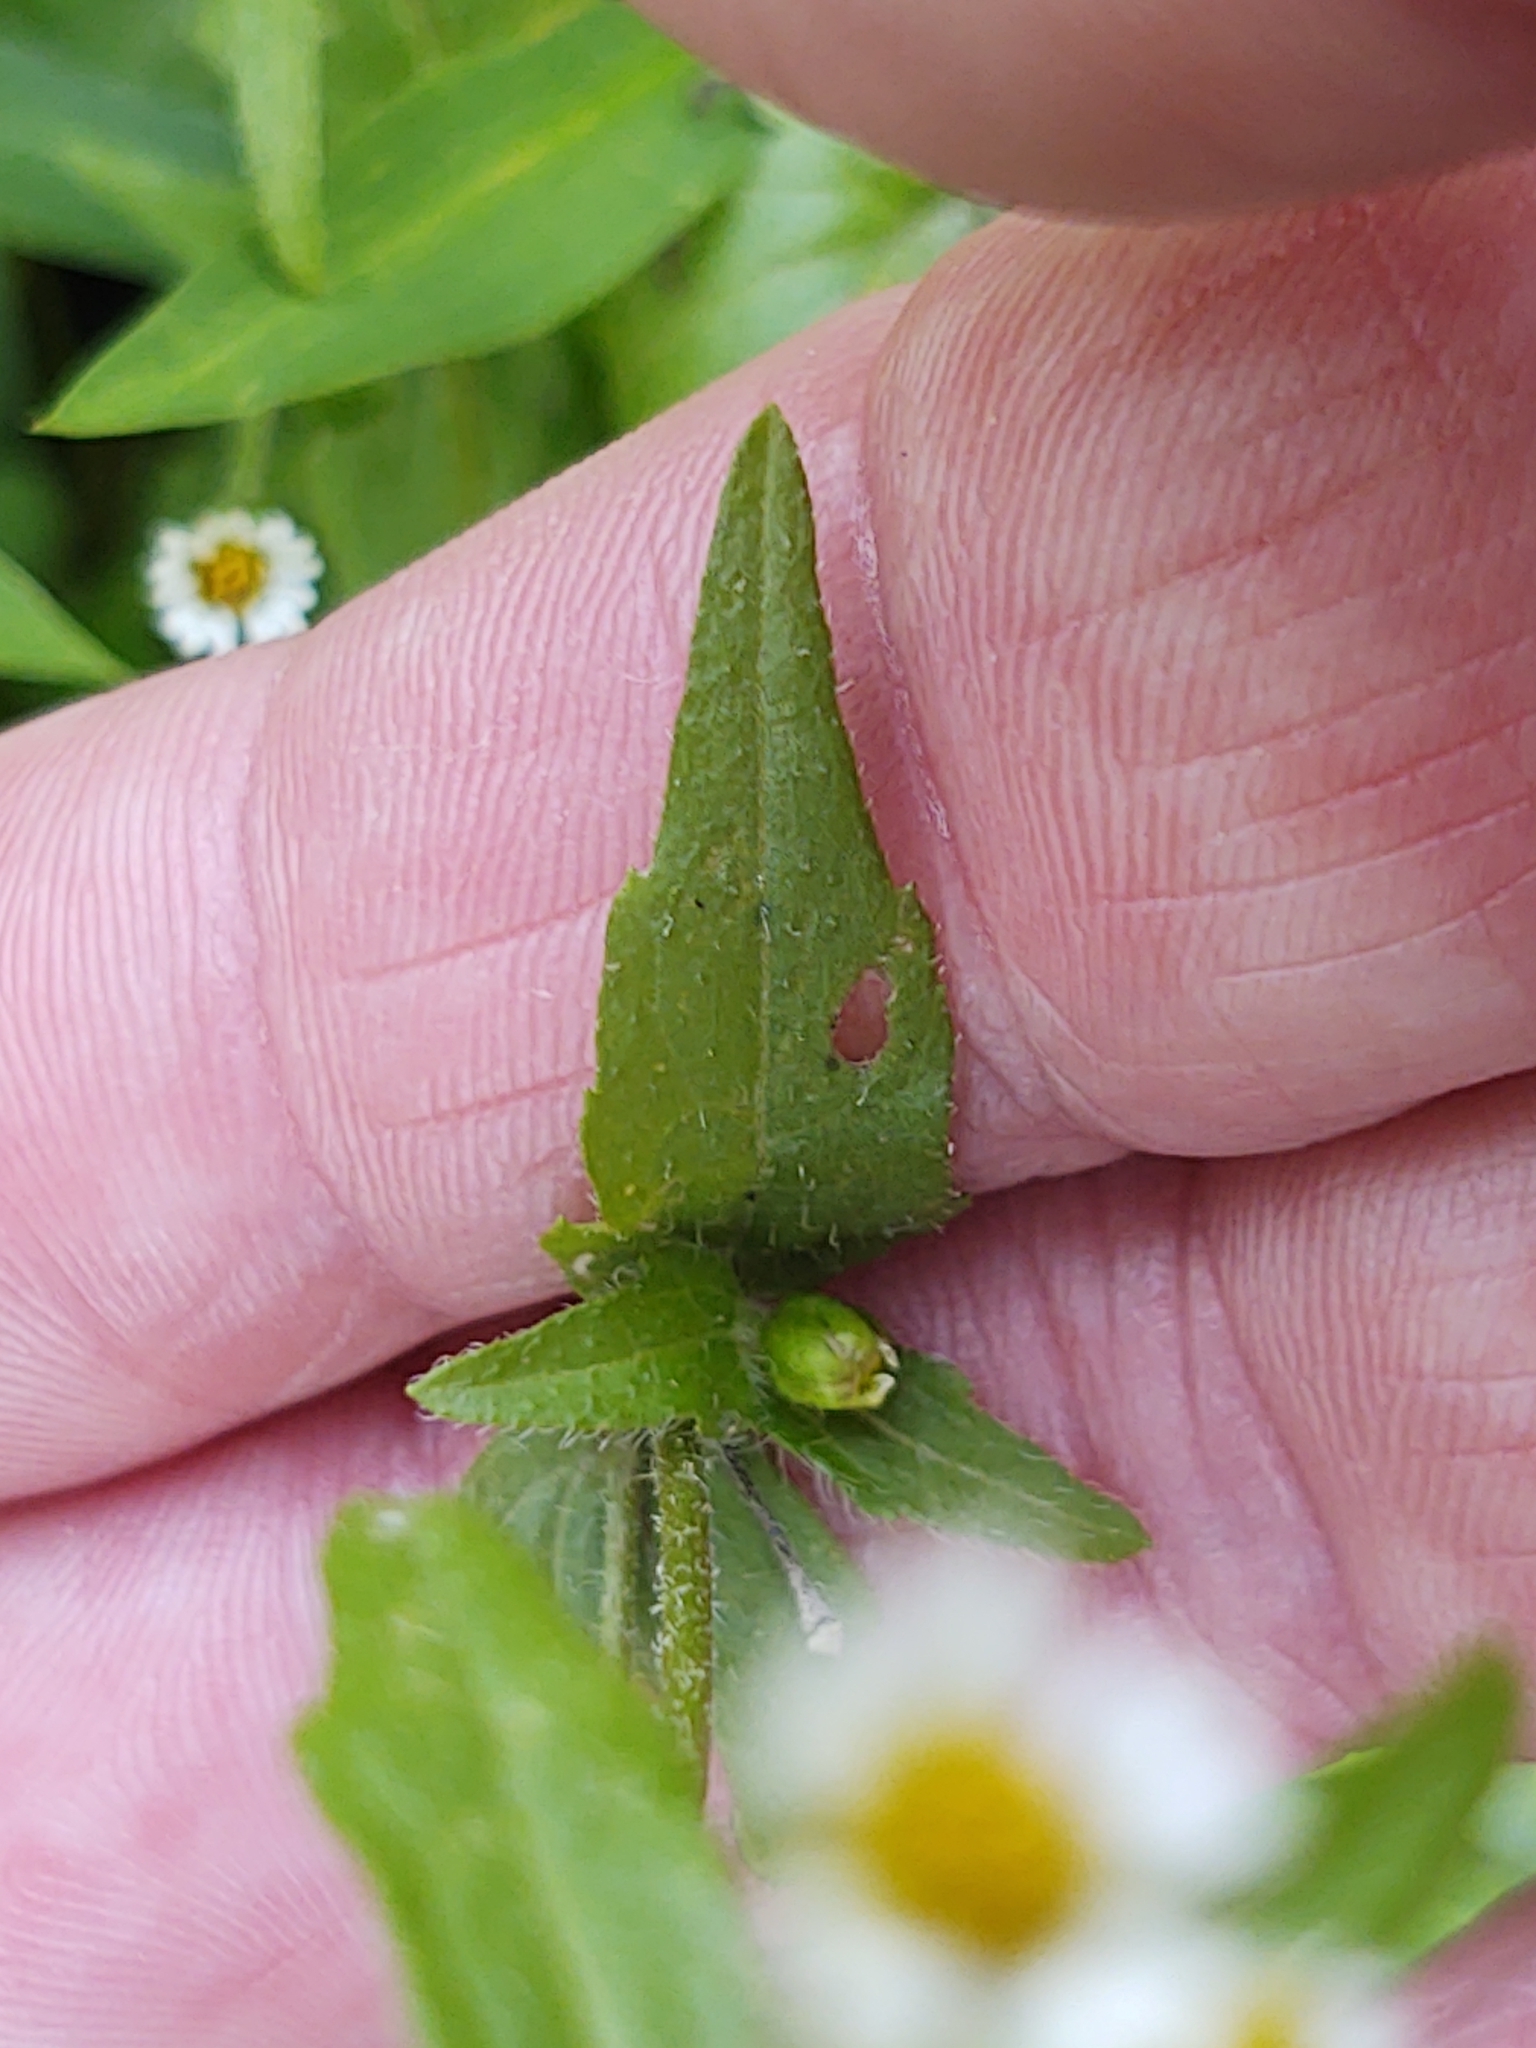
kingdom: Plantae
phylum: Tracheophyta
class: Magnoliopsida
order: Asterales
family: Asteraceae
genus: Galinsoga
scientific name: Galinsoga quadriradiata
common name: Shaggy soldier
